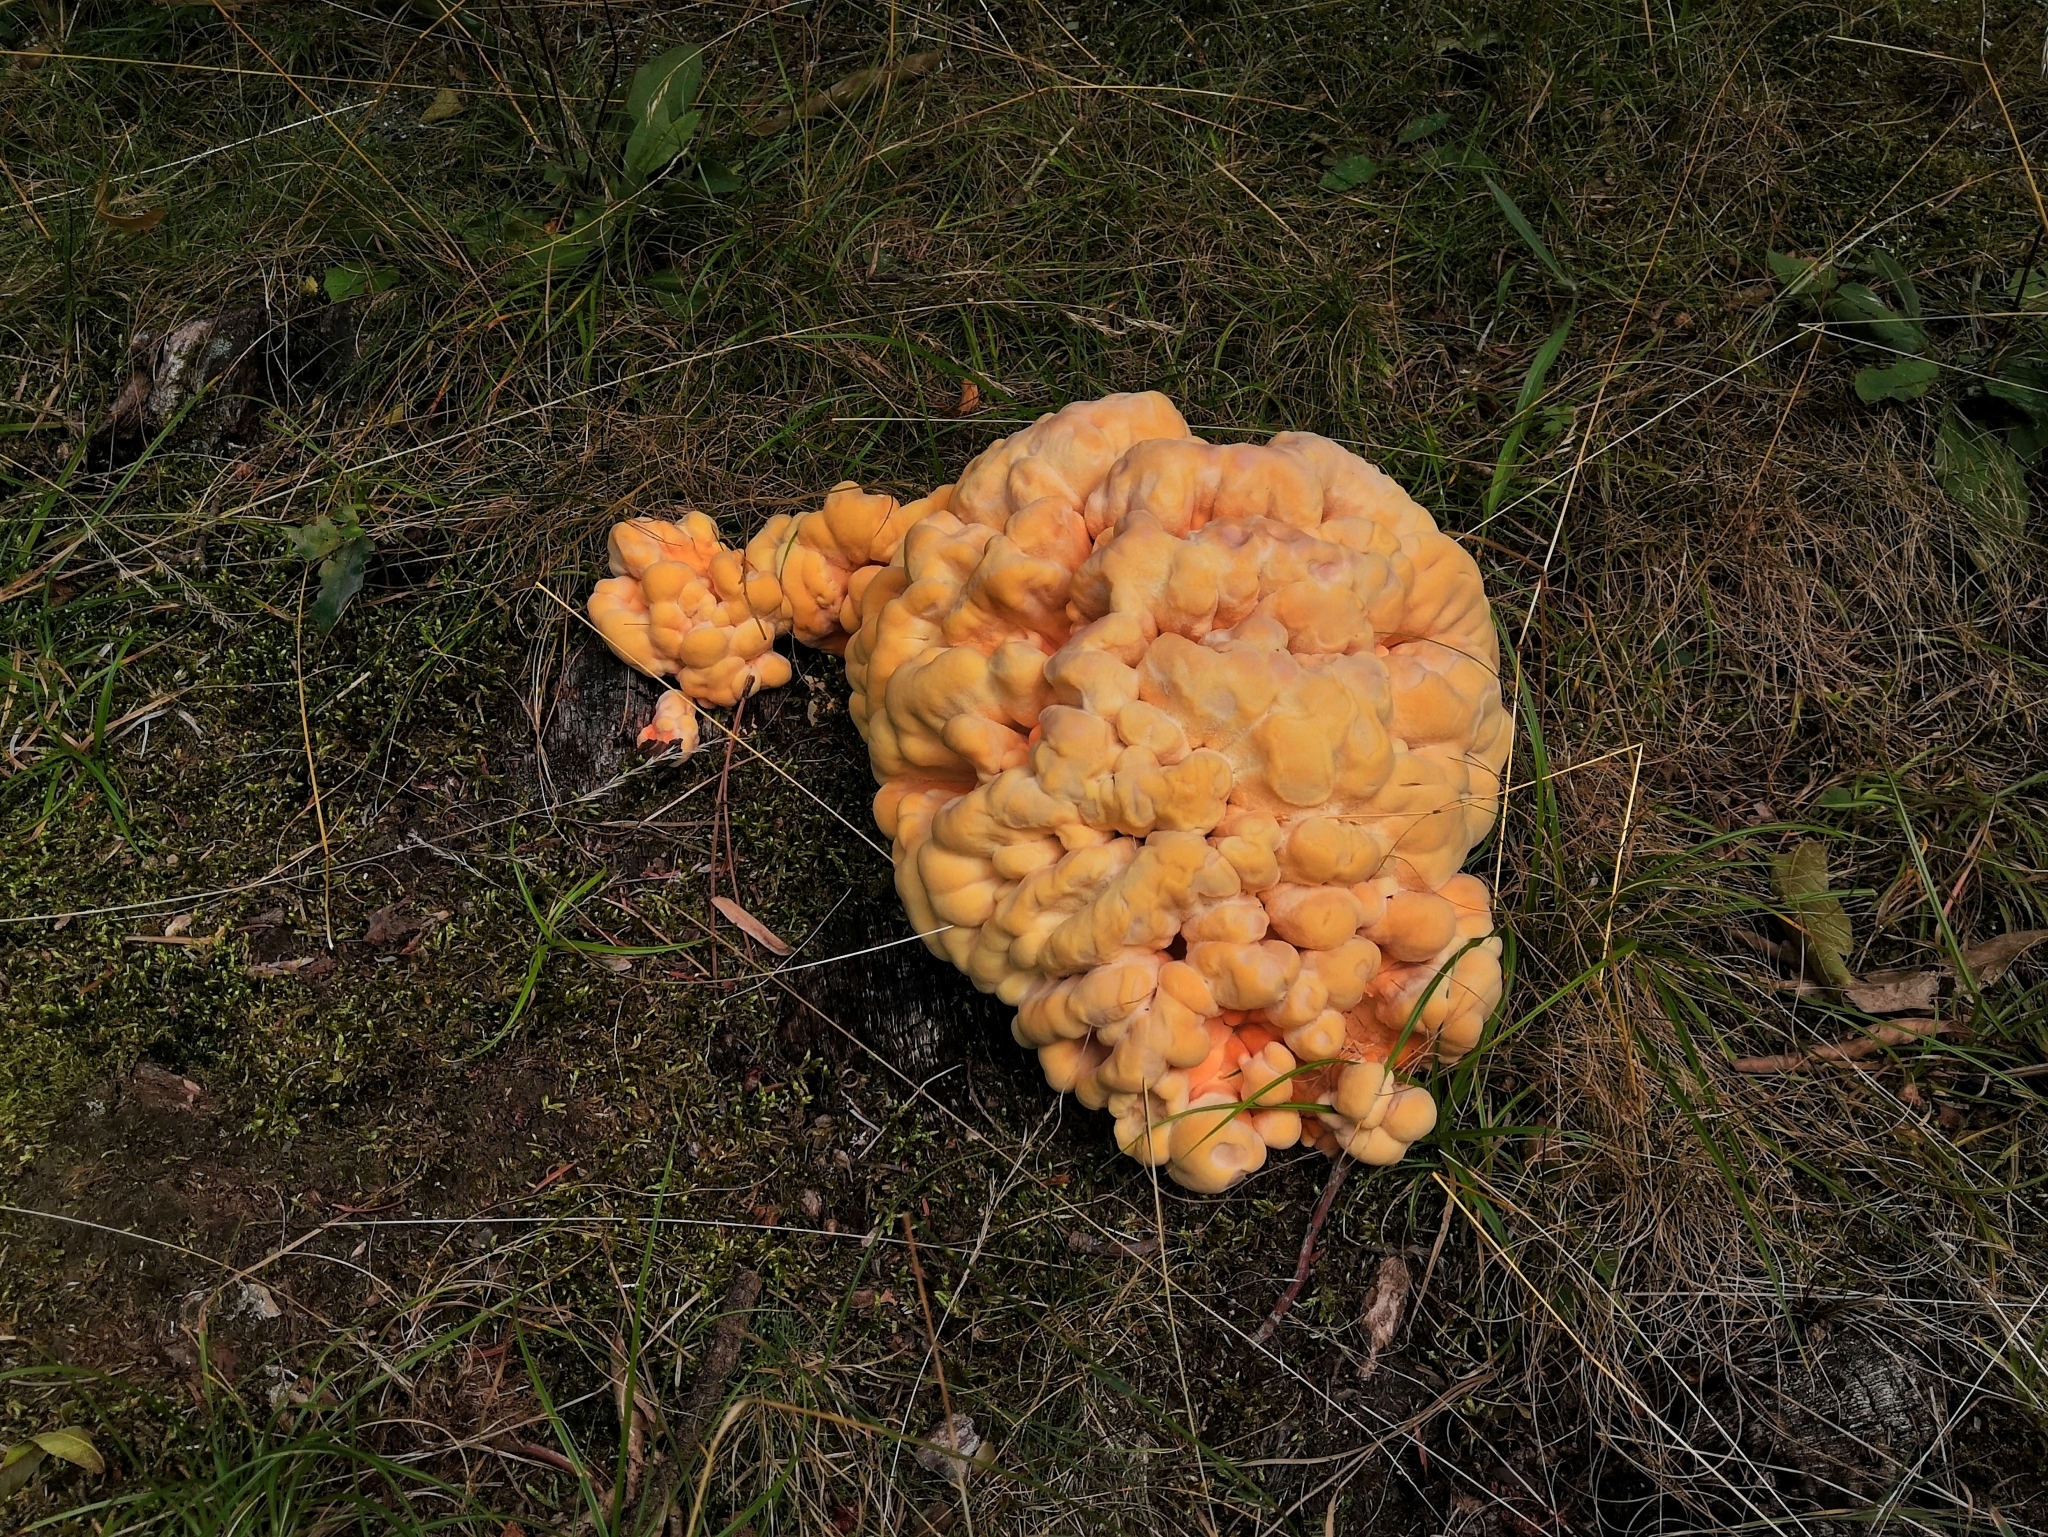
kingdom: Fungi
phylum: Basidiomycota
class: Agaricomycetes
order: Polyporales
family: Laetiporaceae
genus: Laetiporus
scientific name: Laetiporus sulphureus
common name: Chicken of the woods
